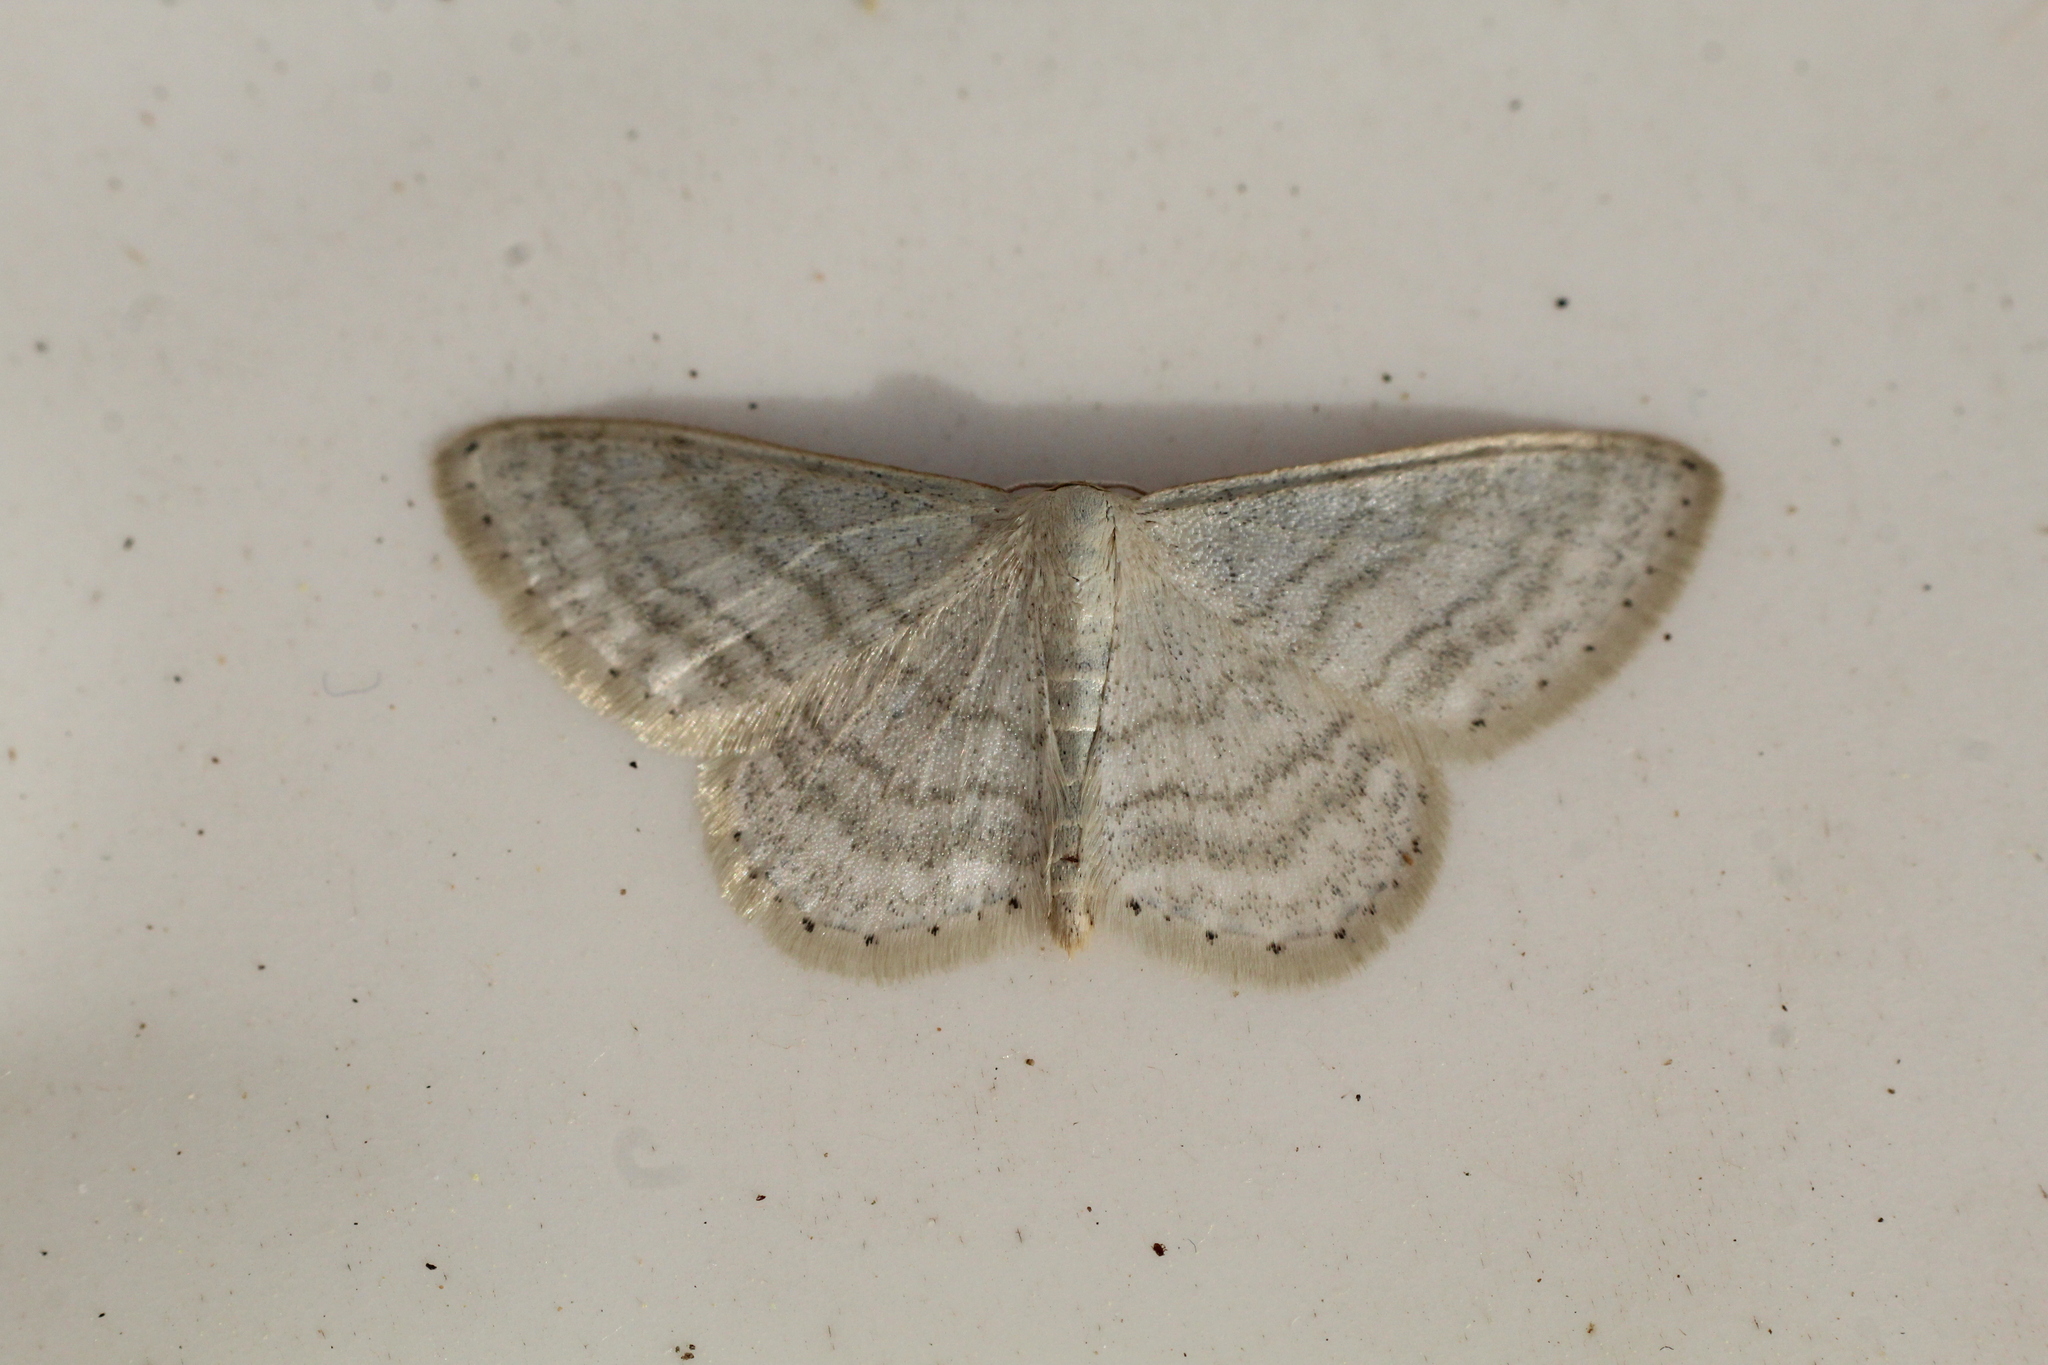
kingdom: Animalia
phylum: Arthropoda
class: Insecta
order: Lepidoptera
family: Geometridae
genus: Idaea
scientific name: Idaea subsericeata
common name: Satin wave
